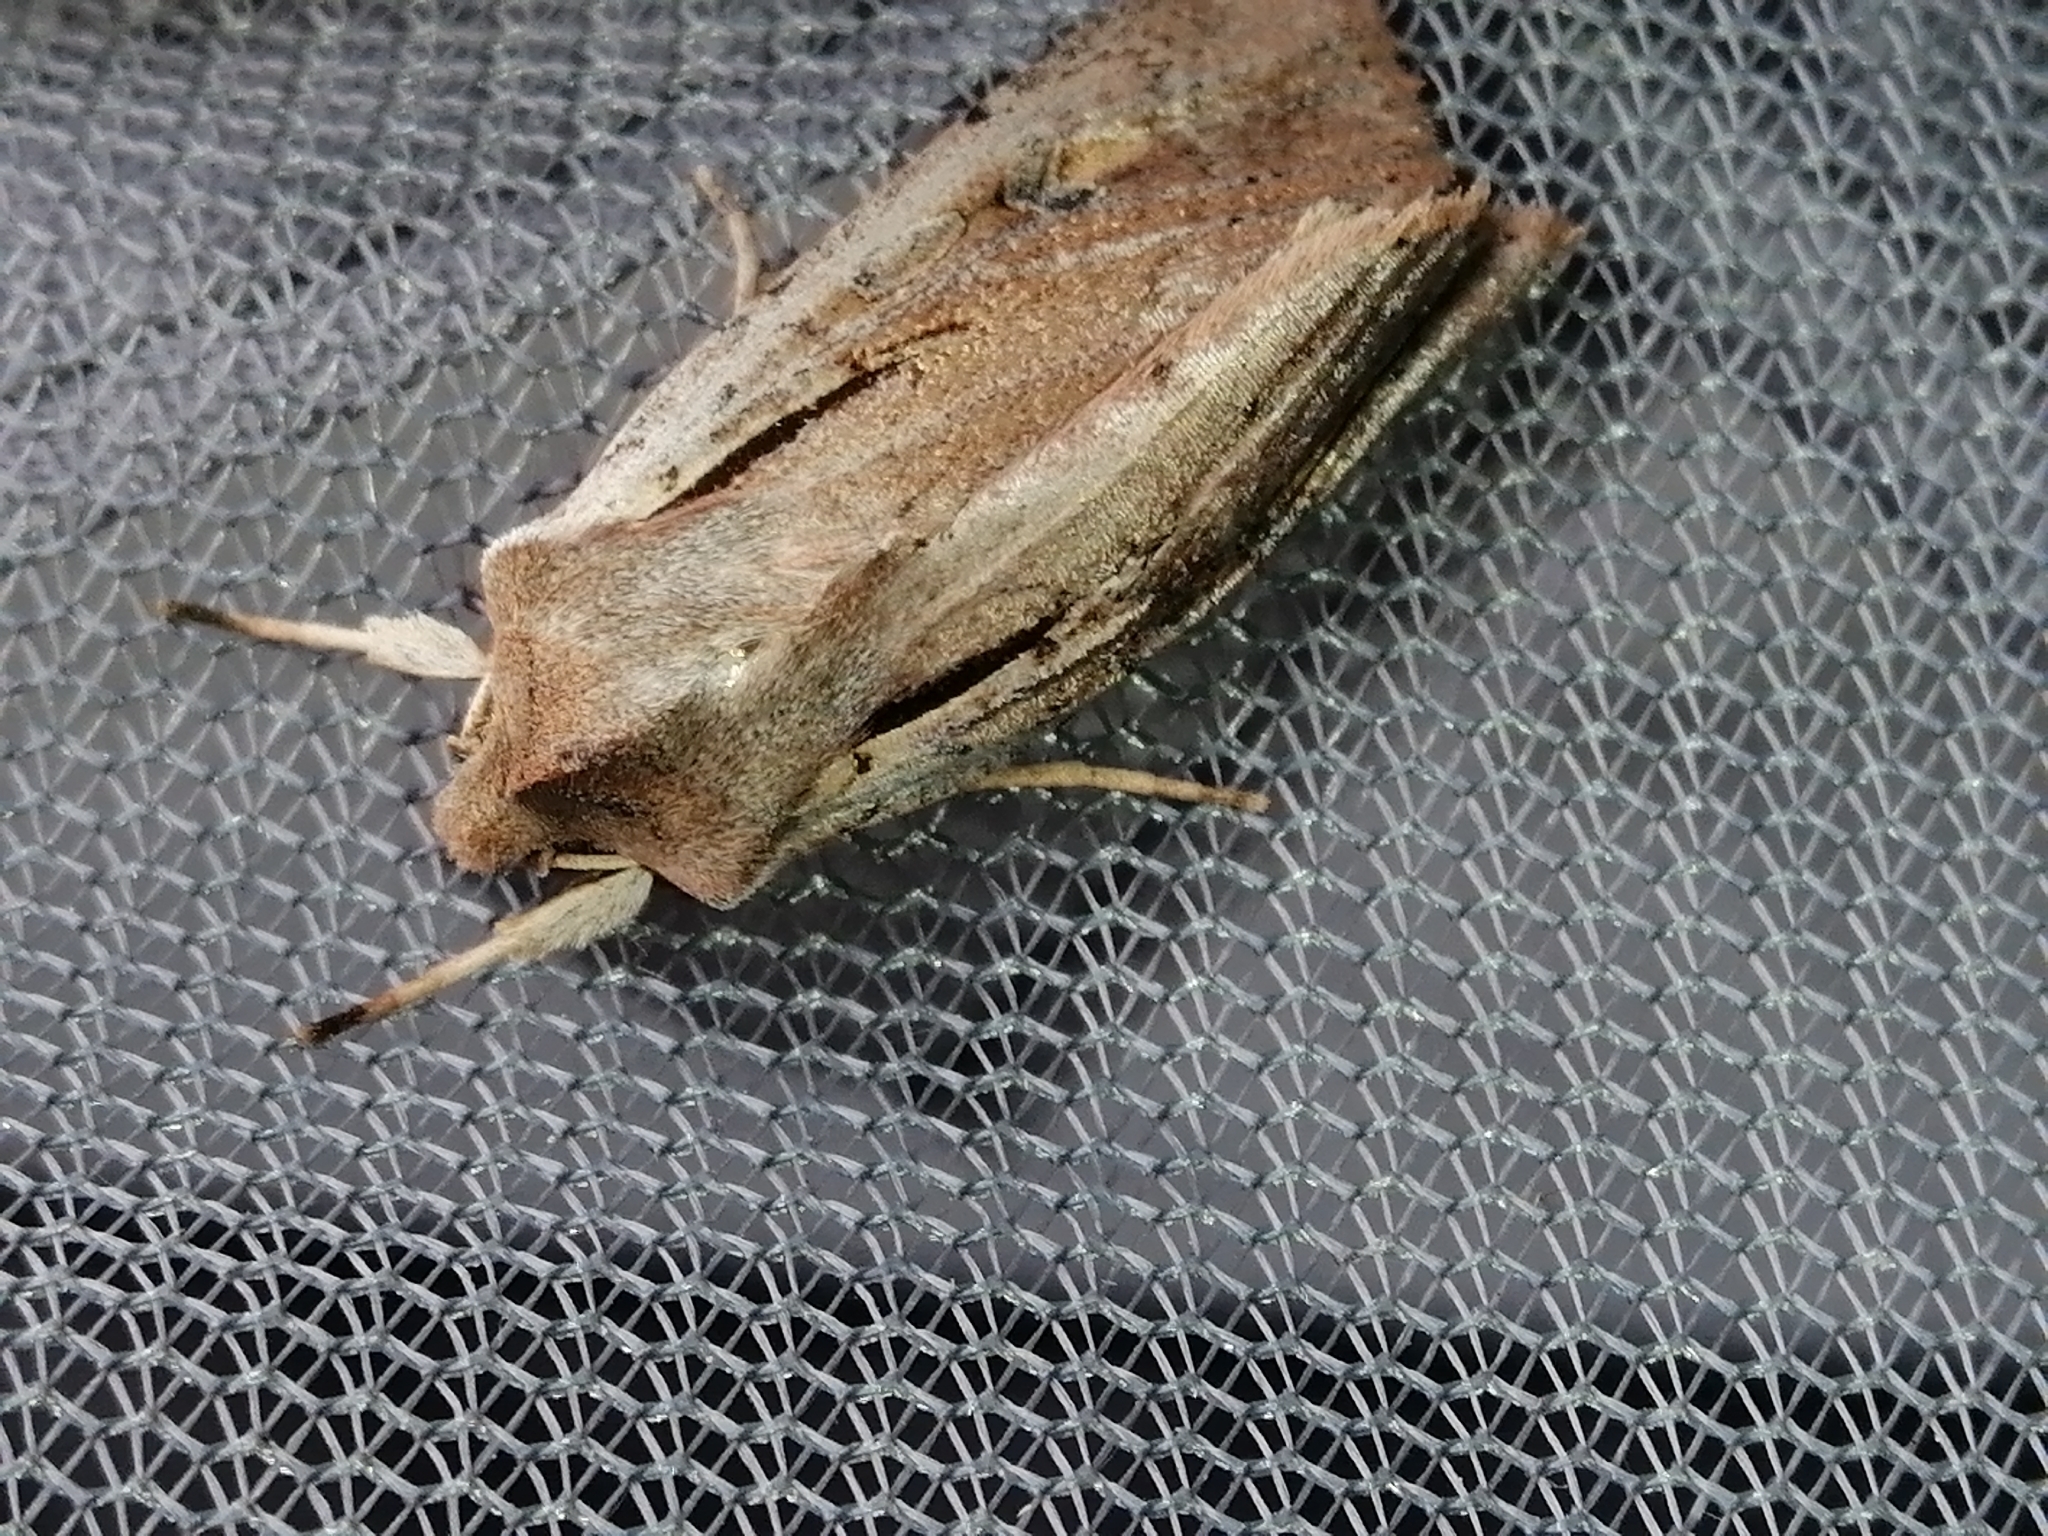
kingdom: Animalia
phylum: Arthropoda
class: Insecta
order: Lepidoptera
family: Noctuidae
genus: Ichneutica
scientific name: Ichneutica atristriga
